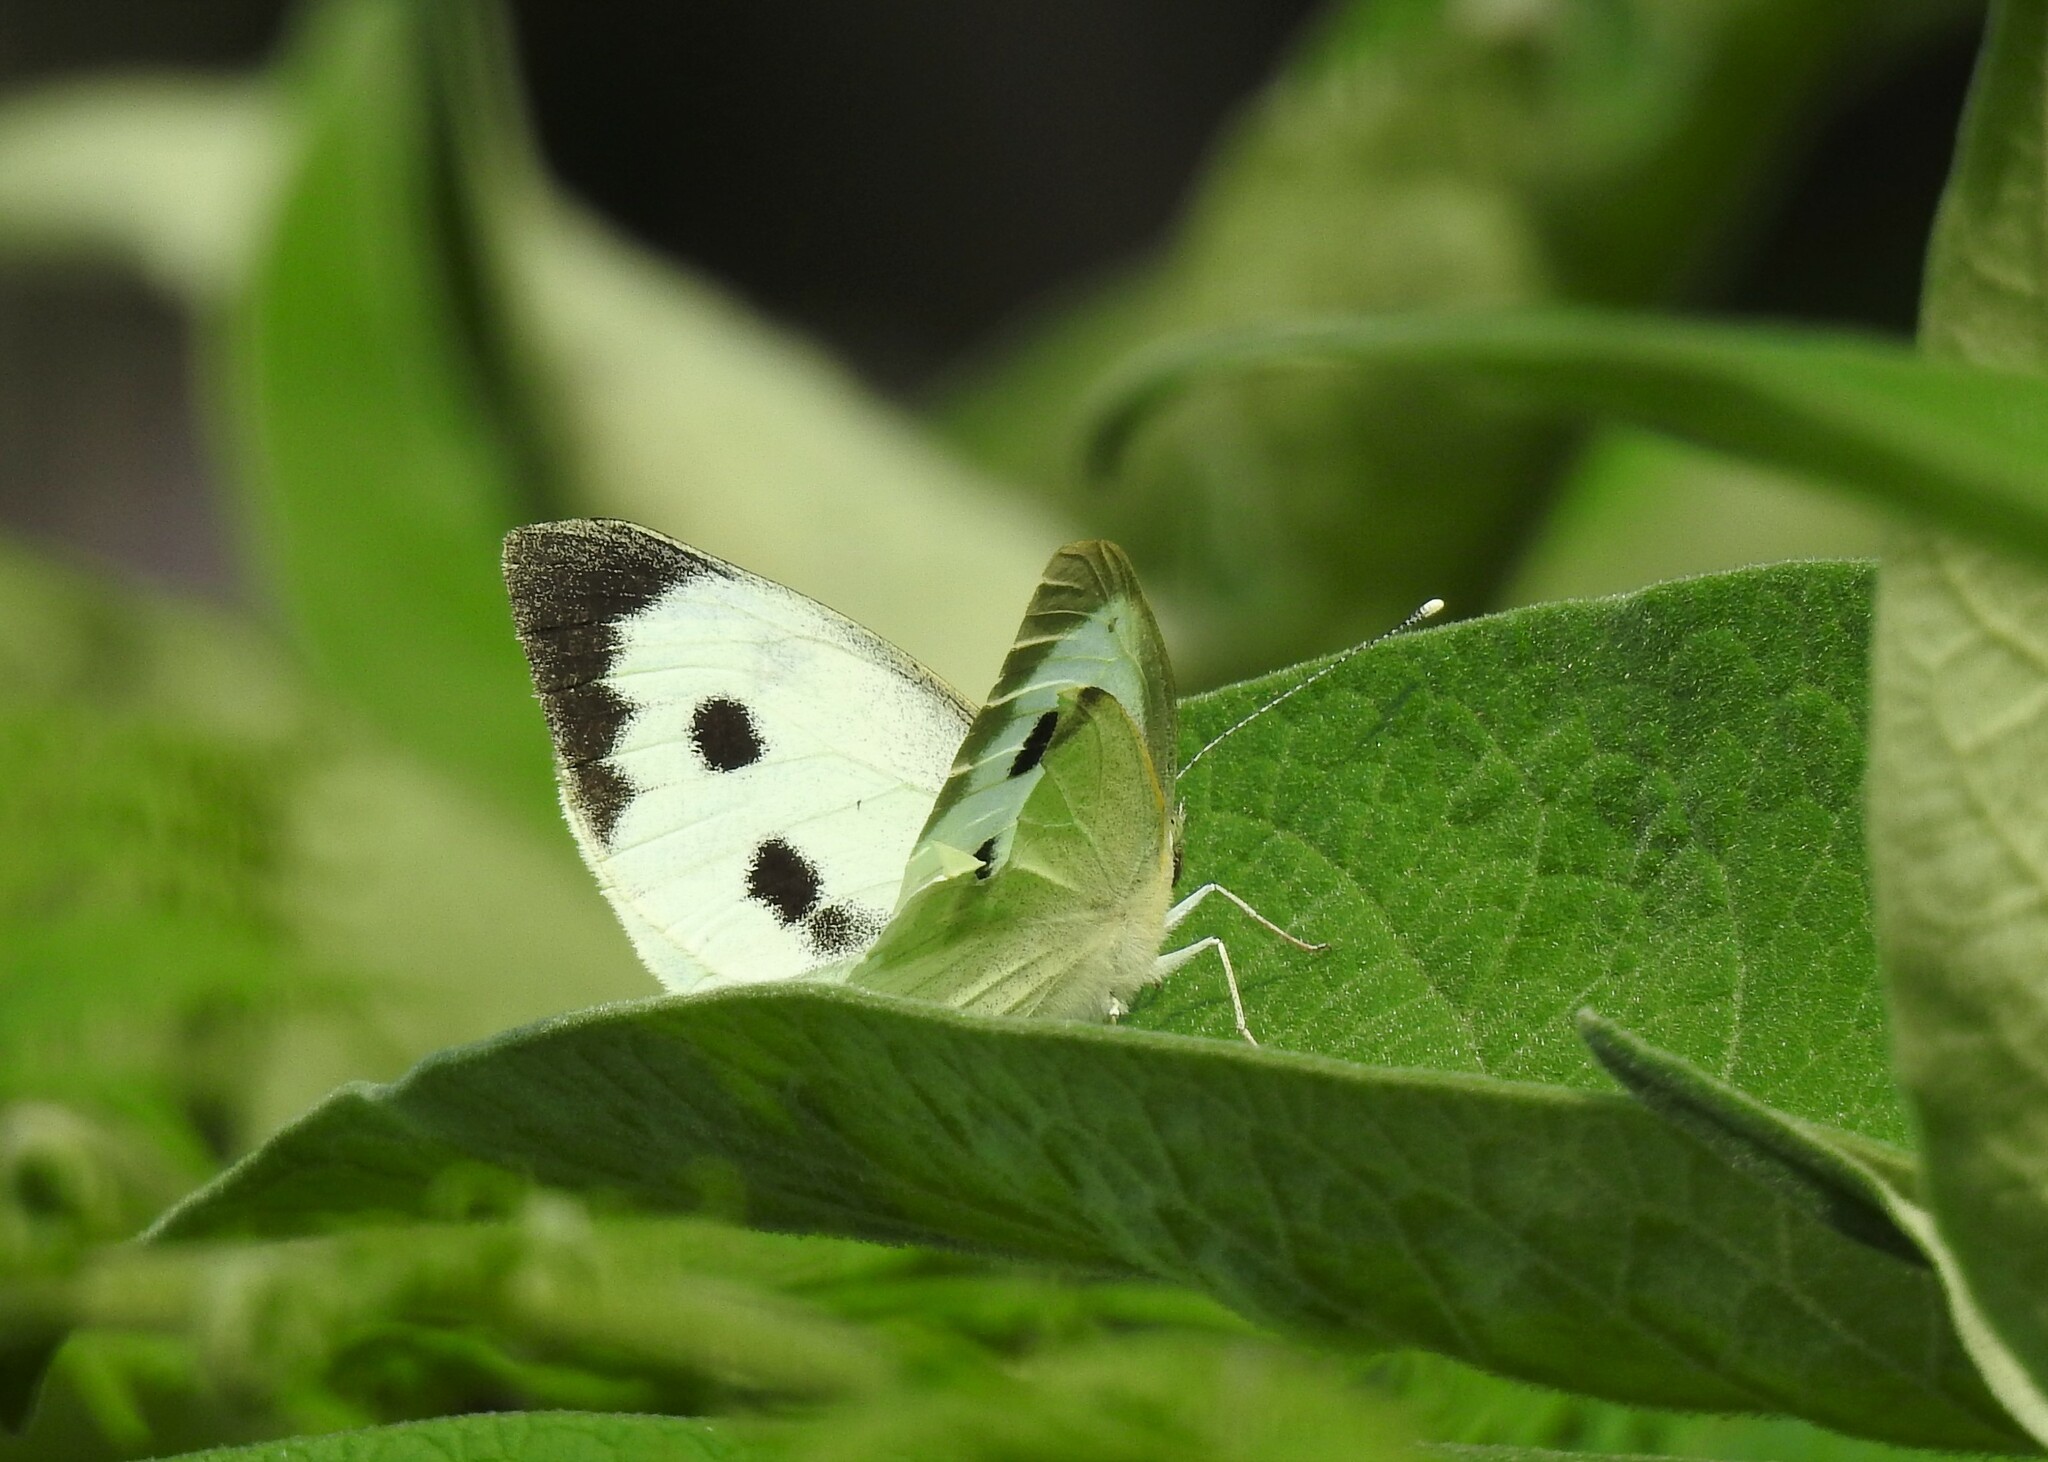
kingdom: Animalia
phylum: Arthropoda
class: Insecta
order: Lepidoptera
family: Pieridae
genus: Pieris
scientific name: Pieris brassicae
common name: Large white
